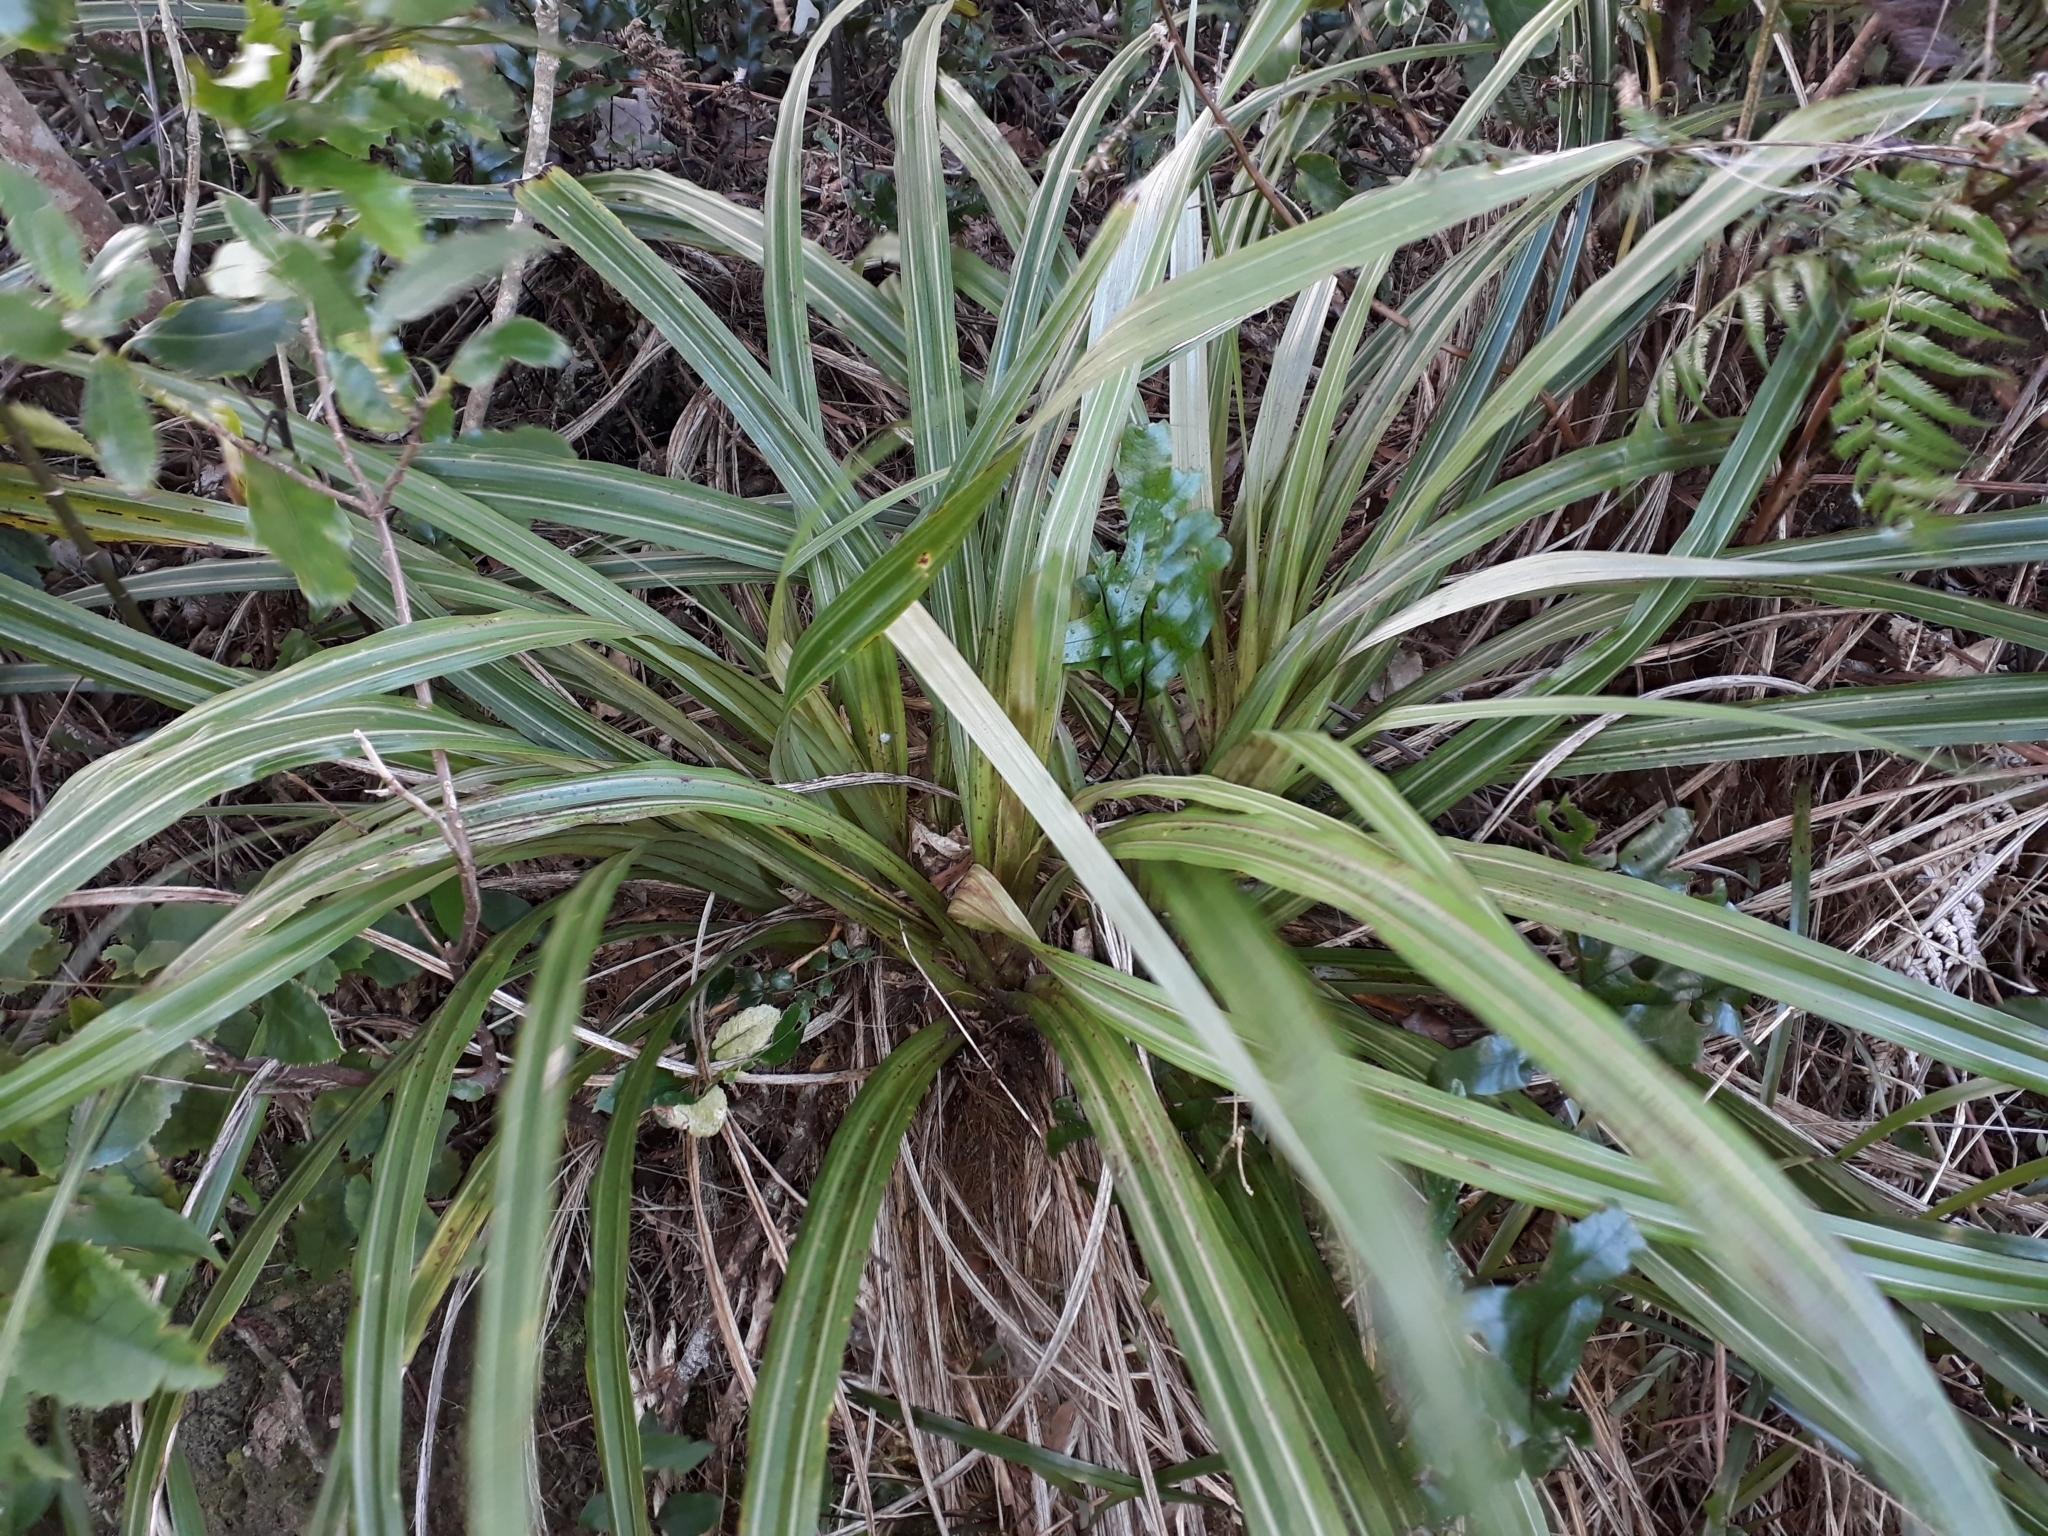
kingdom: Plantae
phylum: Tracheophyta
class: Liliopsida
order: Asparagales
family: Asteliaceae
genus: Astelia
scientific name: Astelia fragrans
